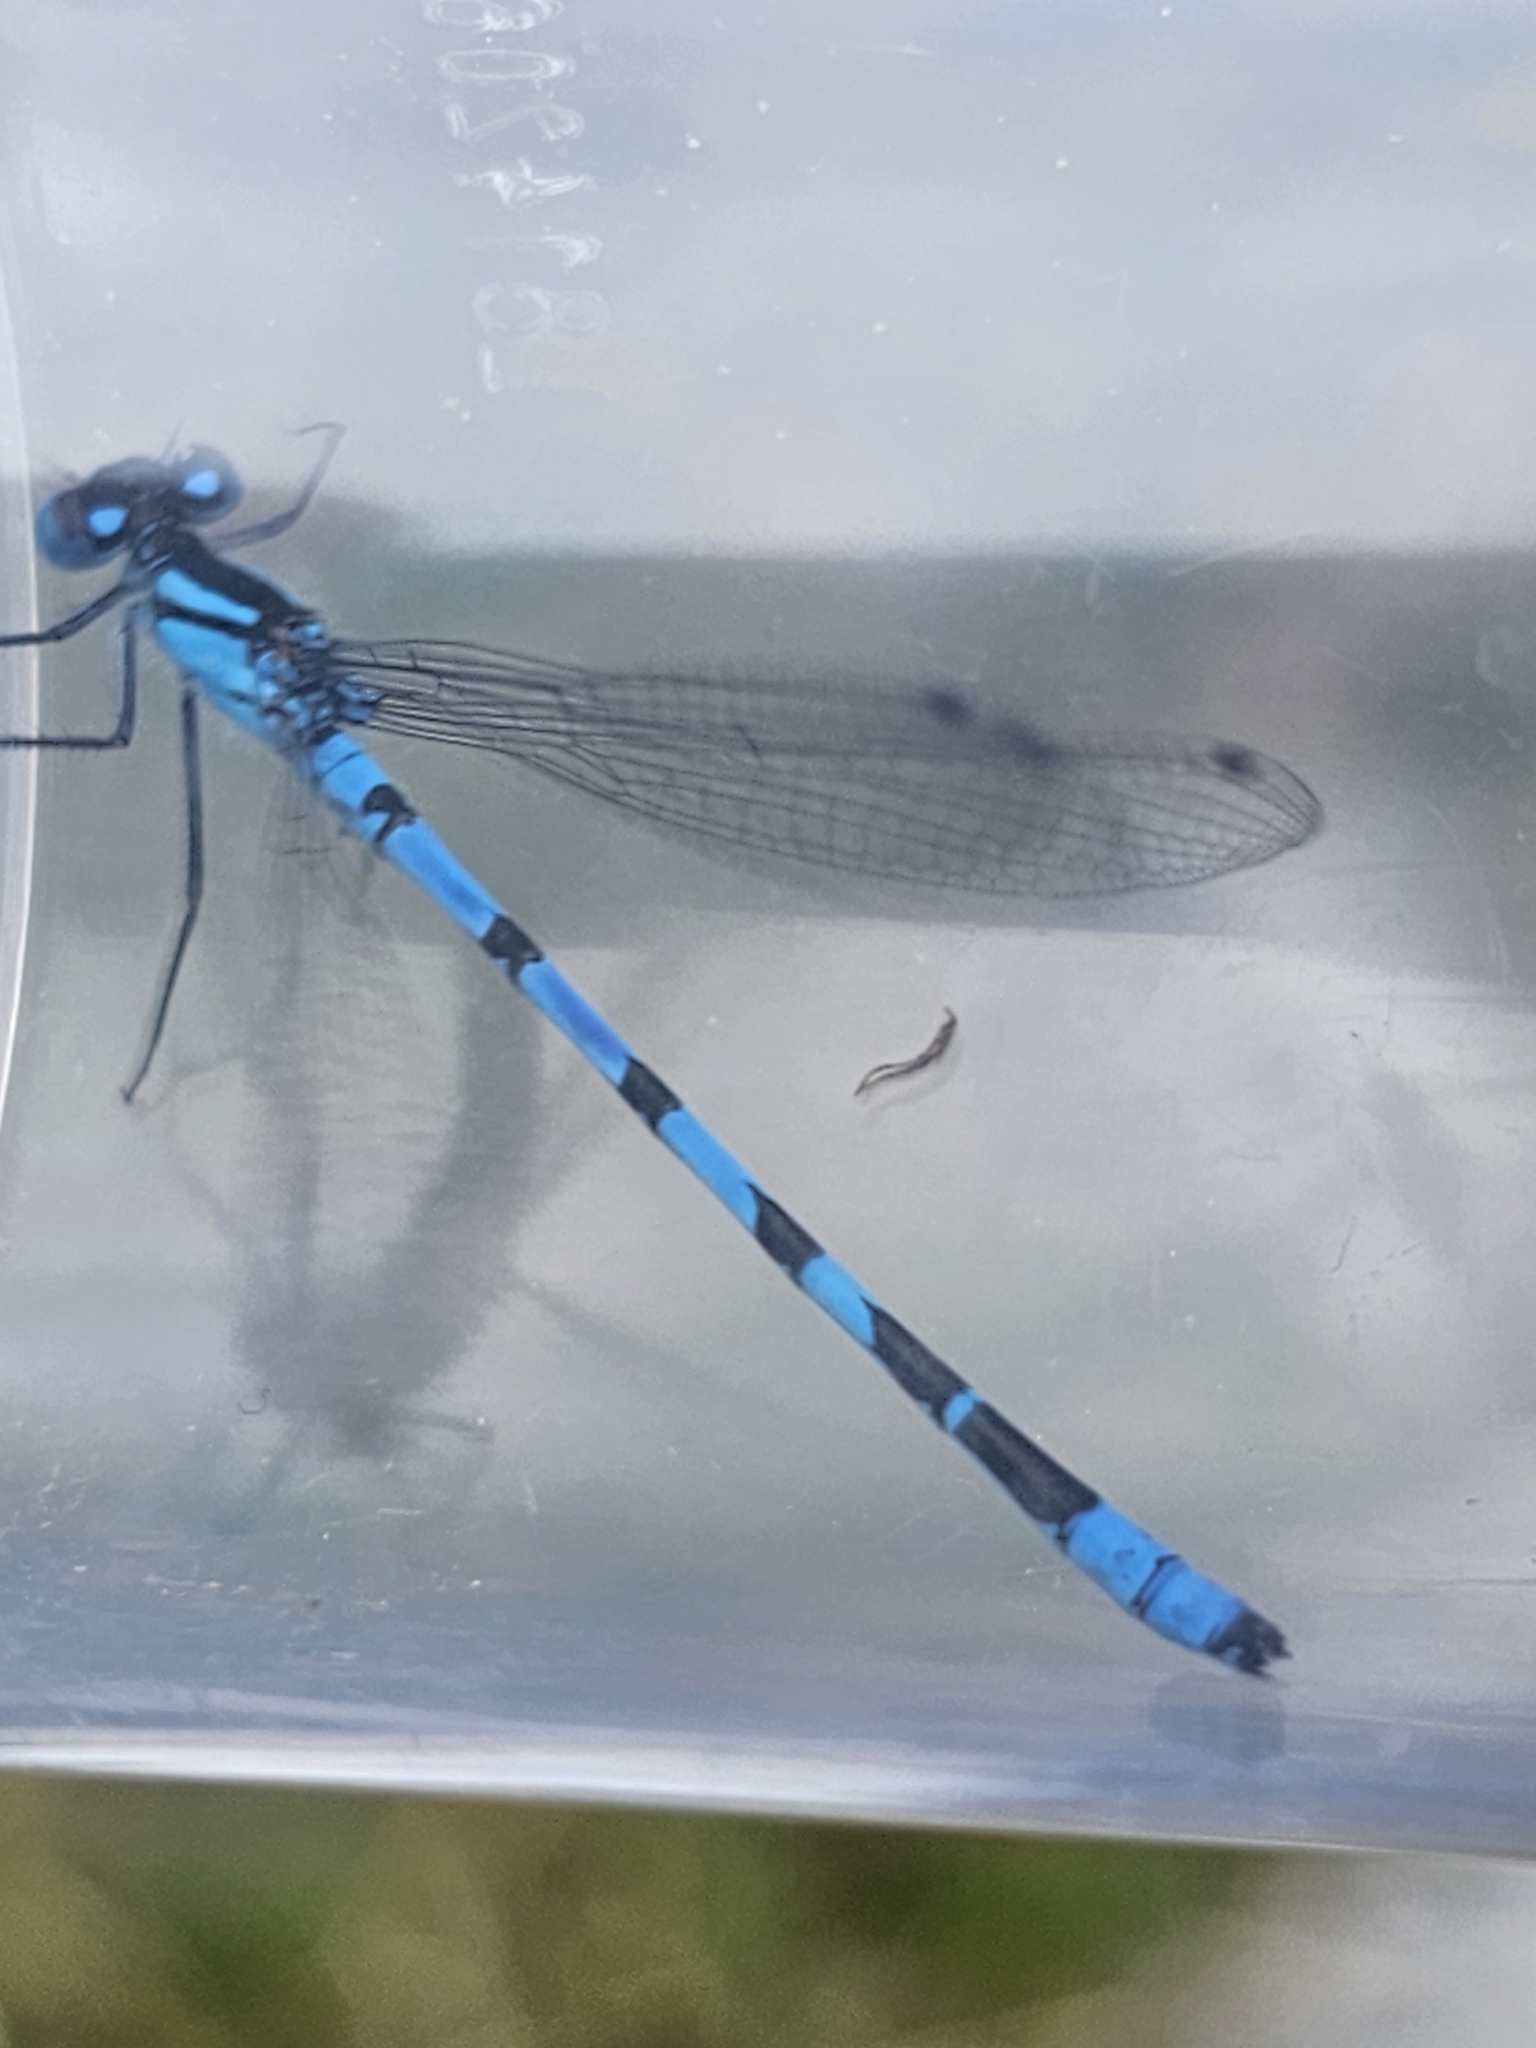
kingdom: Animalia
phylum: Arthropoda
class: Insecta
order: Odonata
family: Coenagrionidae
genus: Enallagma
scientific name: Enallagma cyathigerum
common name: Common blue damselfly
